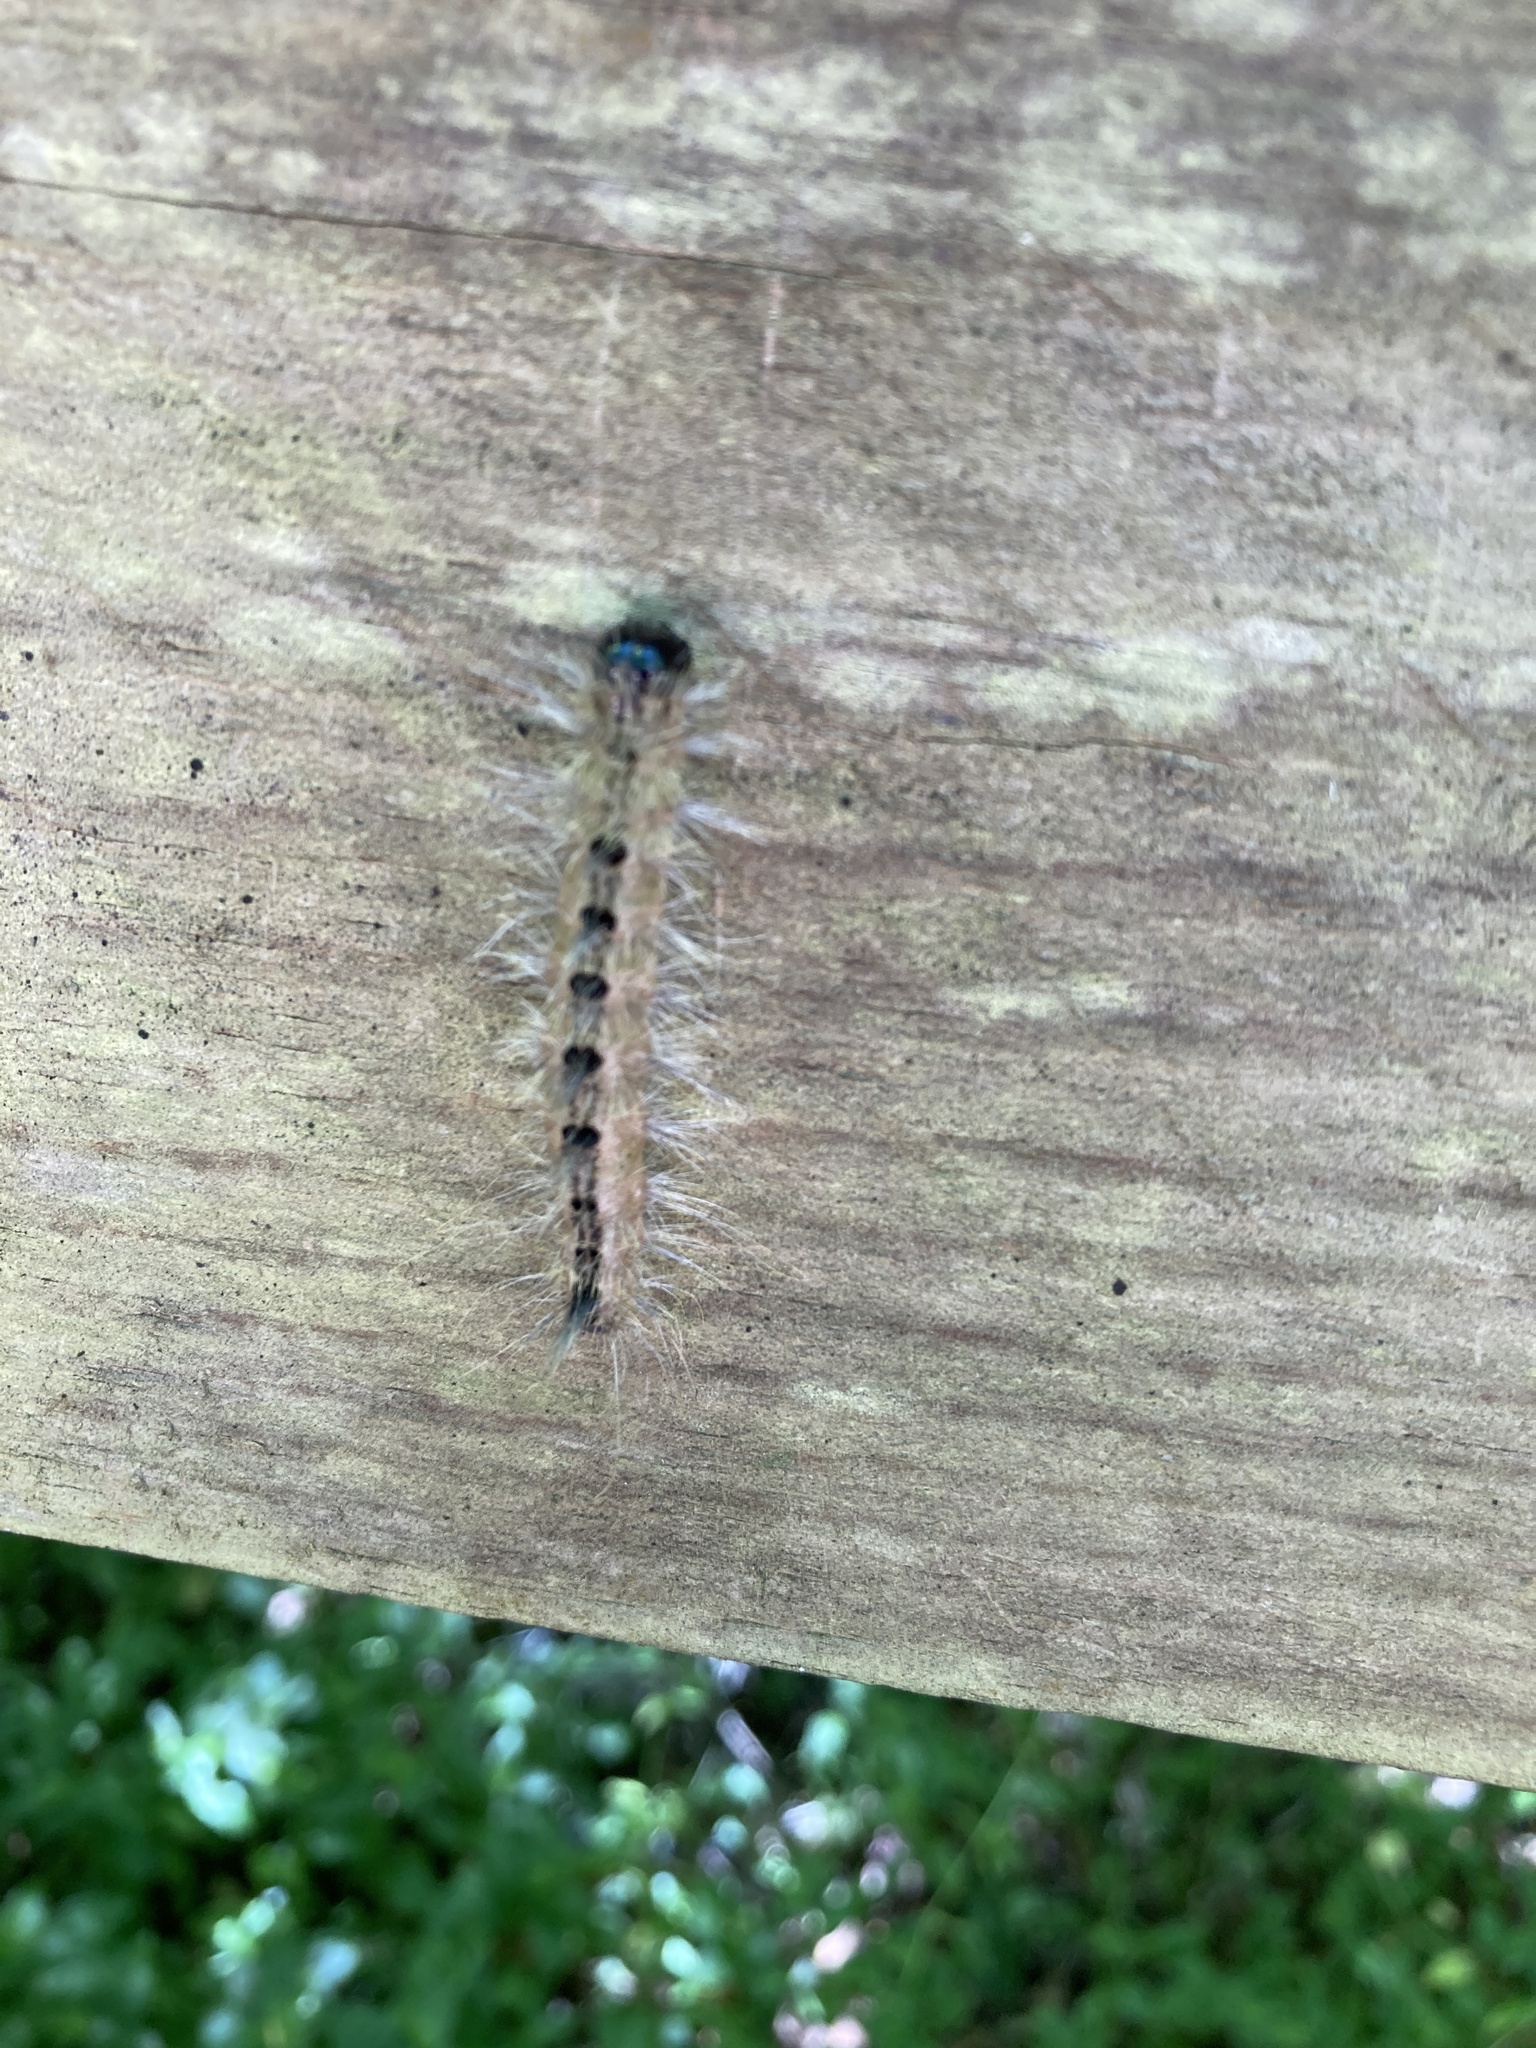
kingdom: Animalia
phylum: Arthropoda
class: Insecta
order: Lepidoptera
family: Noctuidae
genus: Acronicta
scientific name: Acronicta rubricoma
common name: Hackberry dagger
